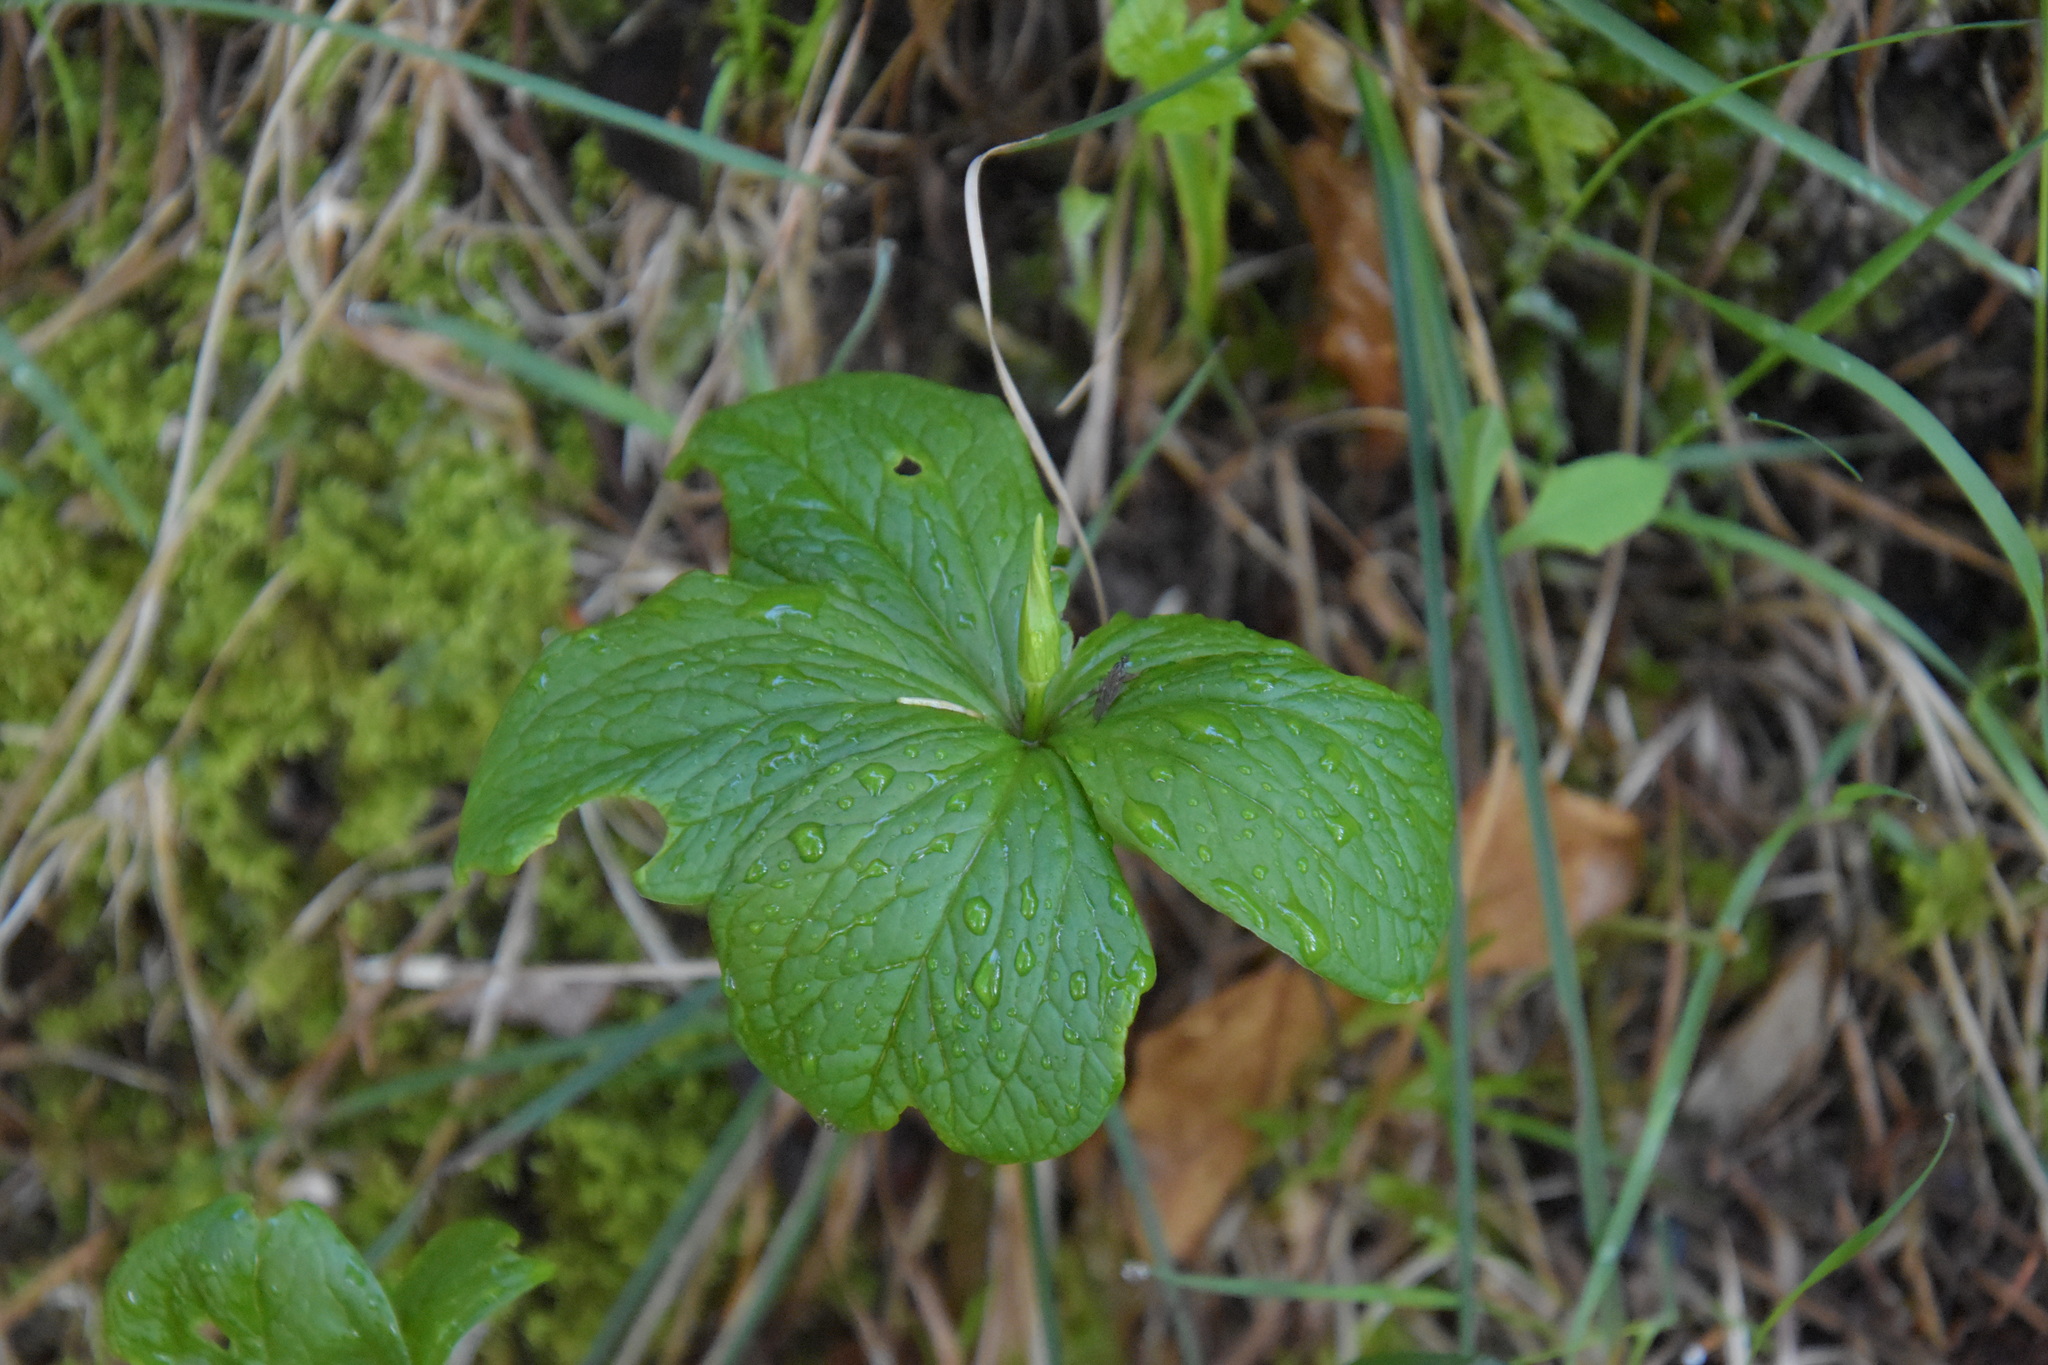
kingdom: Plantae
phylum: Tracheophyta
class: Liliopsida
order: Liliales
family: Melanthiaceae
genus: Paris
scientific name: Paris quadrifolia
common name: Herb-paris
